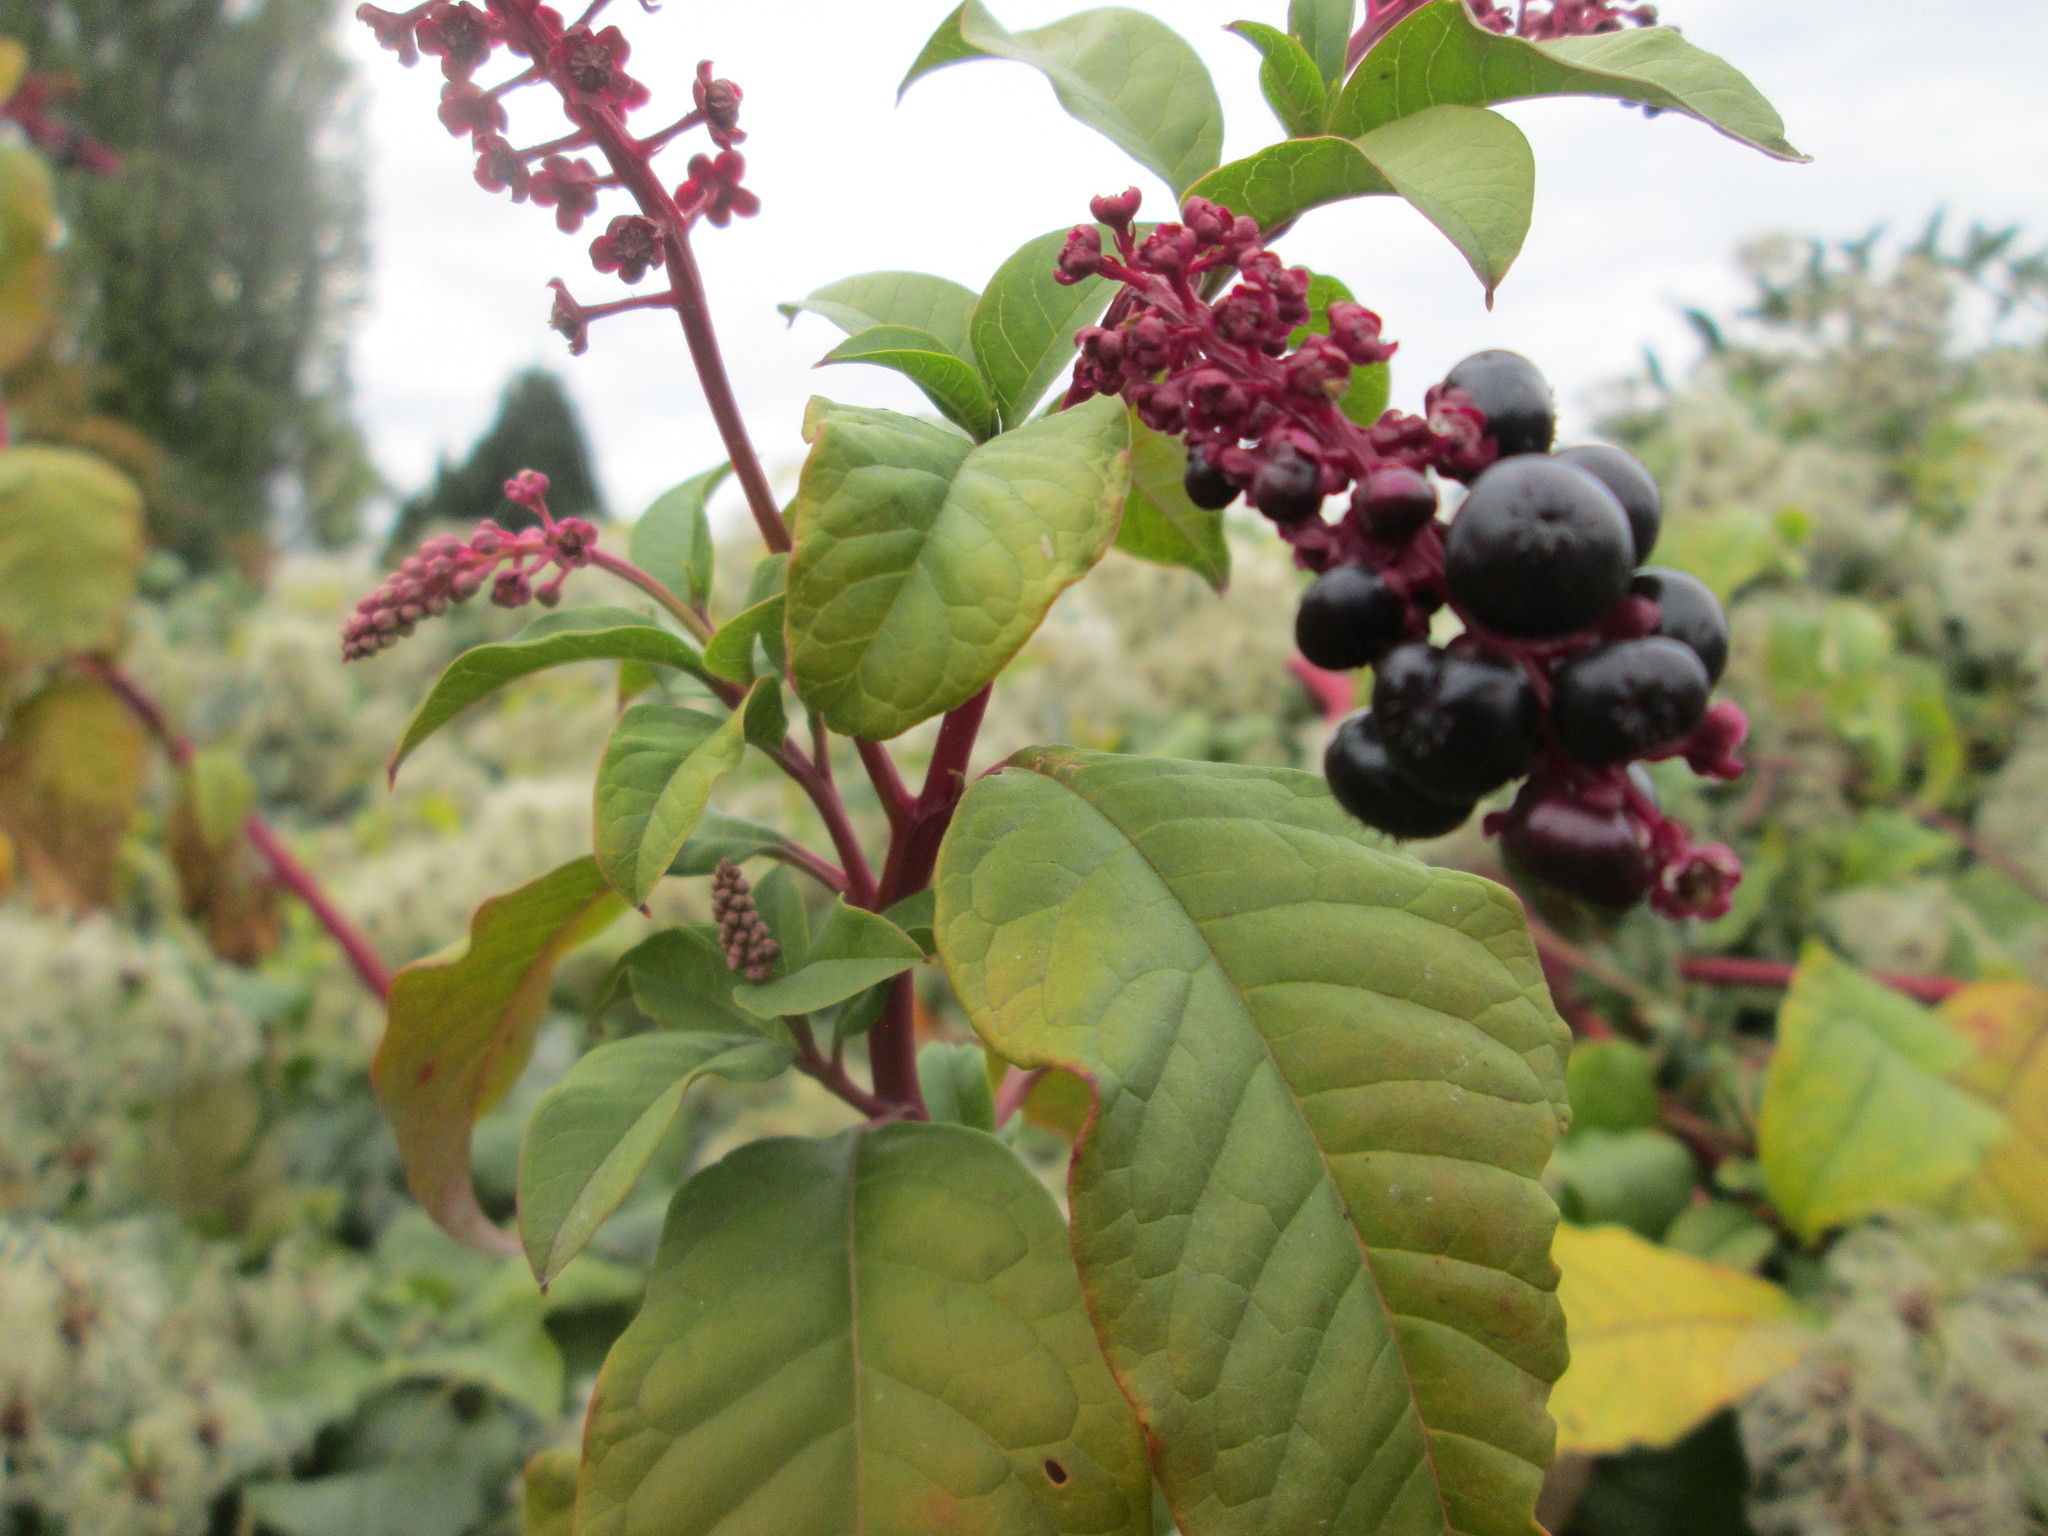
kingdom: Plantae
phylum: Tracheophyta
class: Magnoliopsida
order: Caryophyllales
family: Phytolaccaceae
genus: Phytolacca
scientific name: Phytolacca americana
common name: American pokeweed
